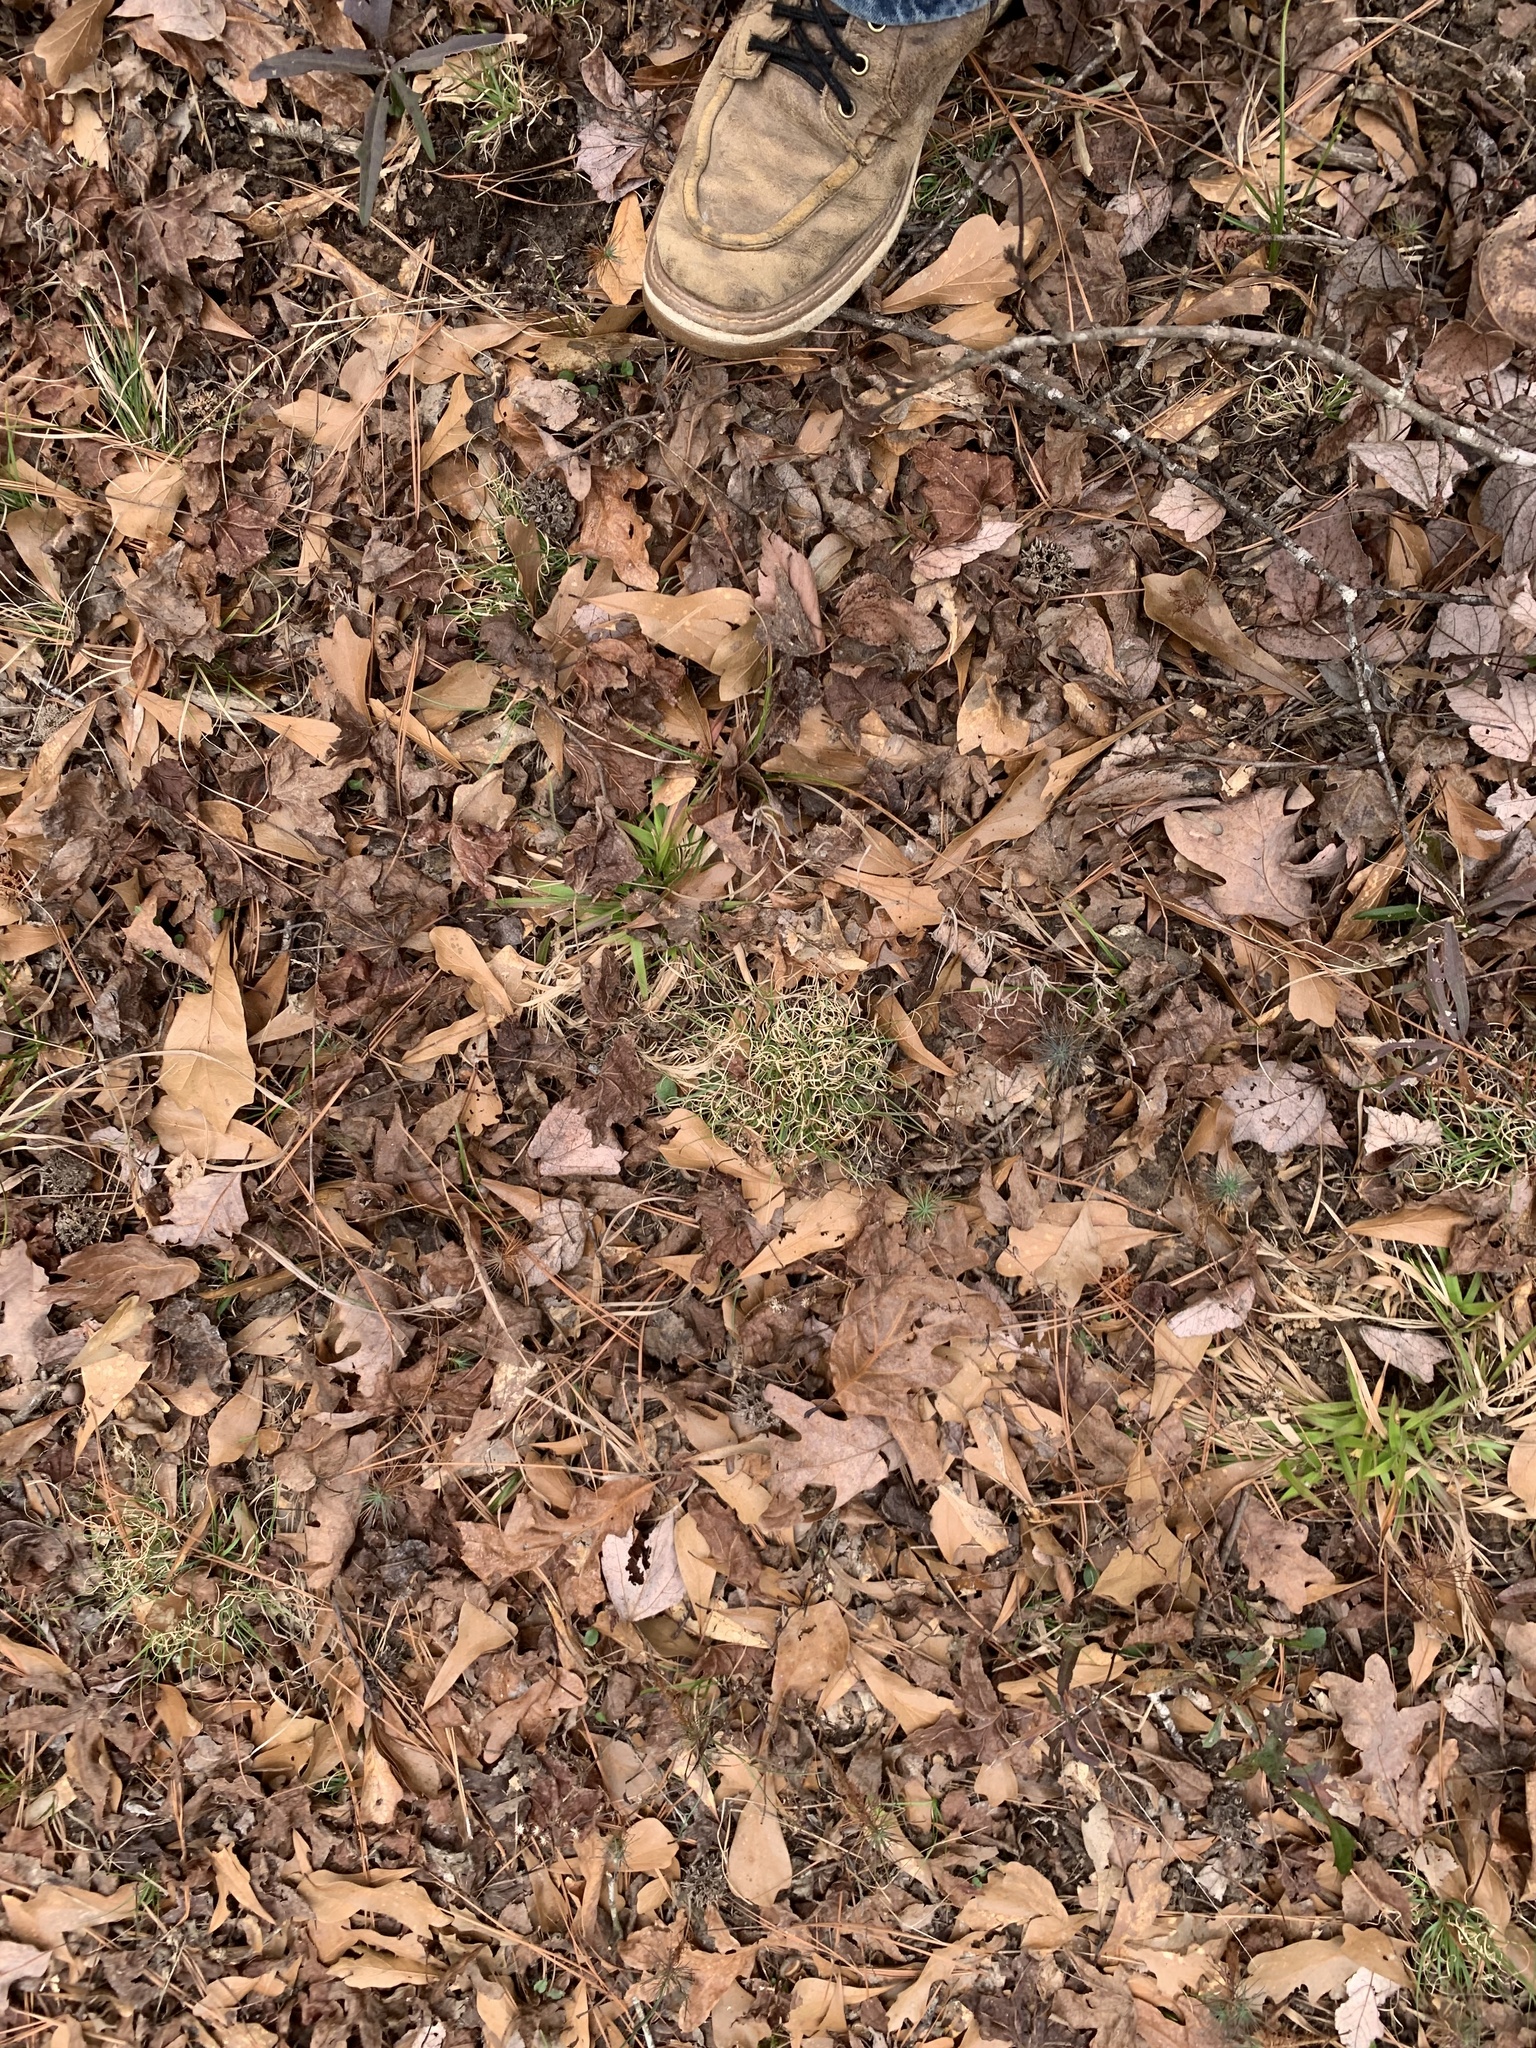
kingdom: Plantae
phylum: Tracheophyta
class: Liliopsida
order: Poales
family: Poaceae
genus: Danthonia
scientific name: Danthonia spicata
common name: Common wild oatgrass
